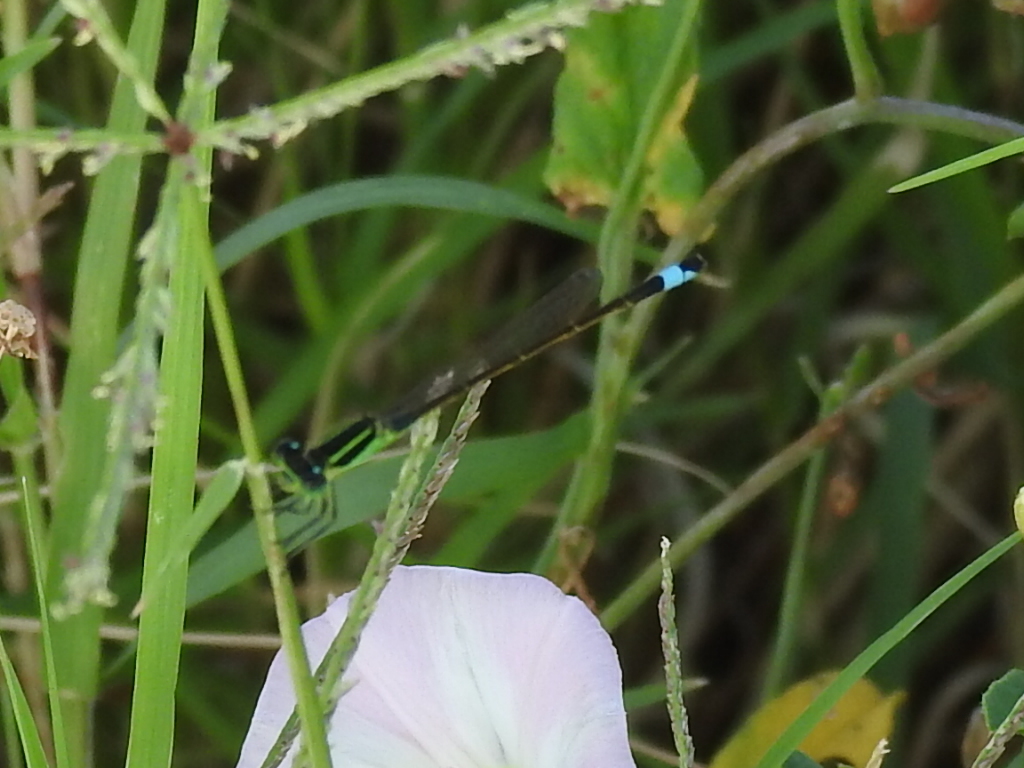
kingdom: Animalia
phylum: Arthropoda
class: Insecta
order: Odonata
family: Coenagrionidae
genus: Ischnura
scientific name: Ischnura ramburii
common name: Rambur's forktail
